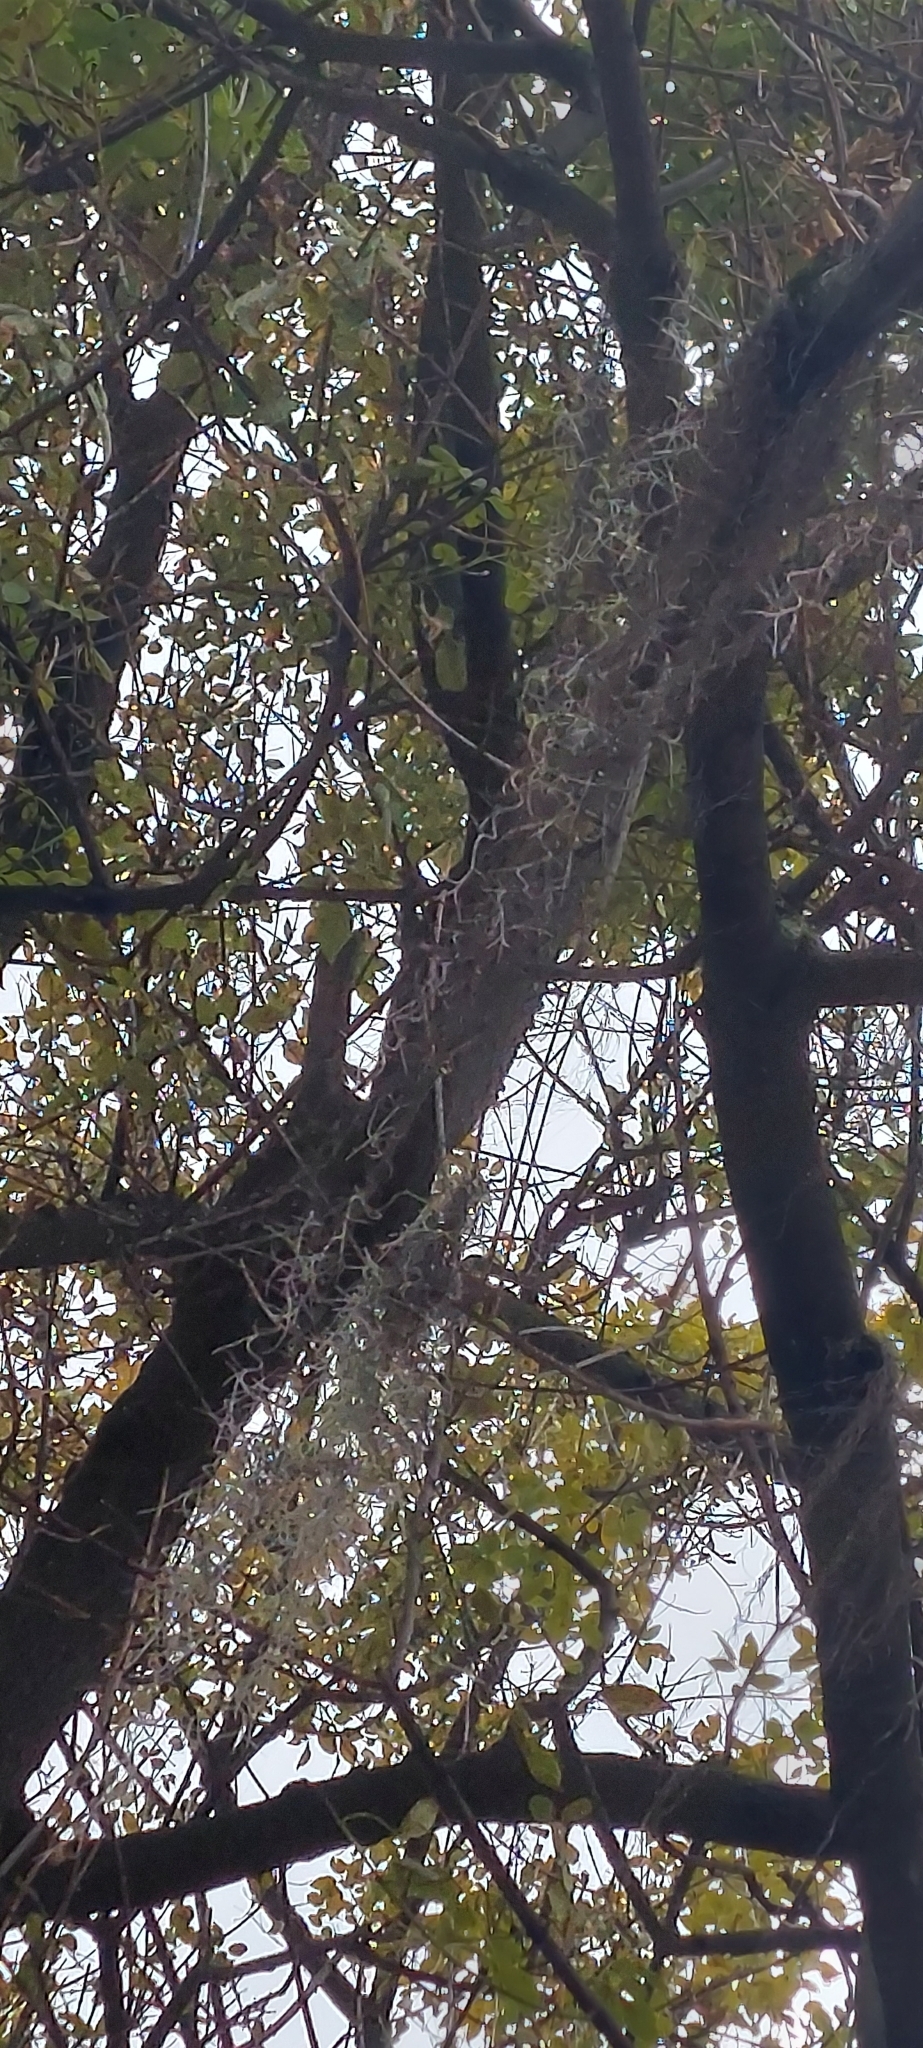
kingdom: Plantae
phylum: Tracheophyta
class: Liliopsida
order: Poales
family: Bromeliaceae
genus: Tillandsia
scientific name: Tillandsia usneoides
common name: Spanish moss
